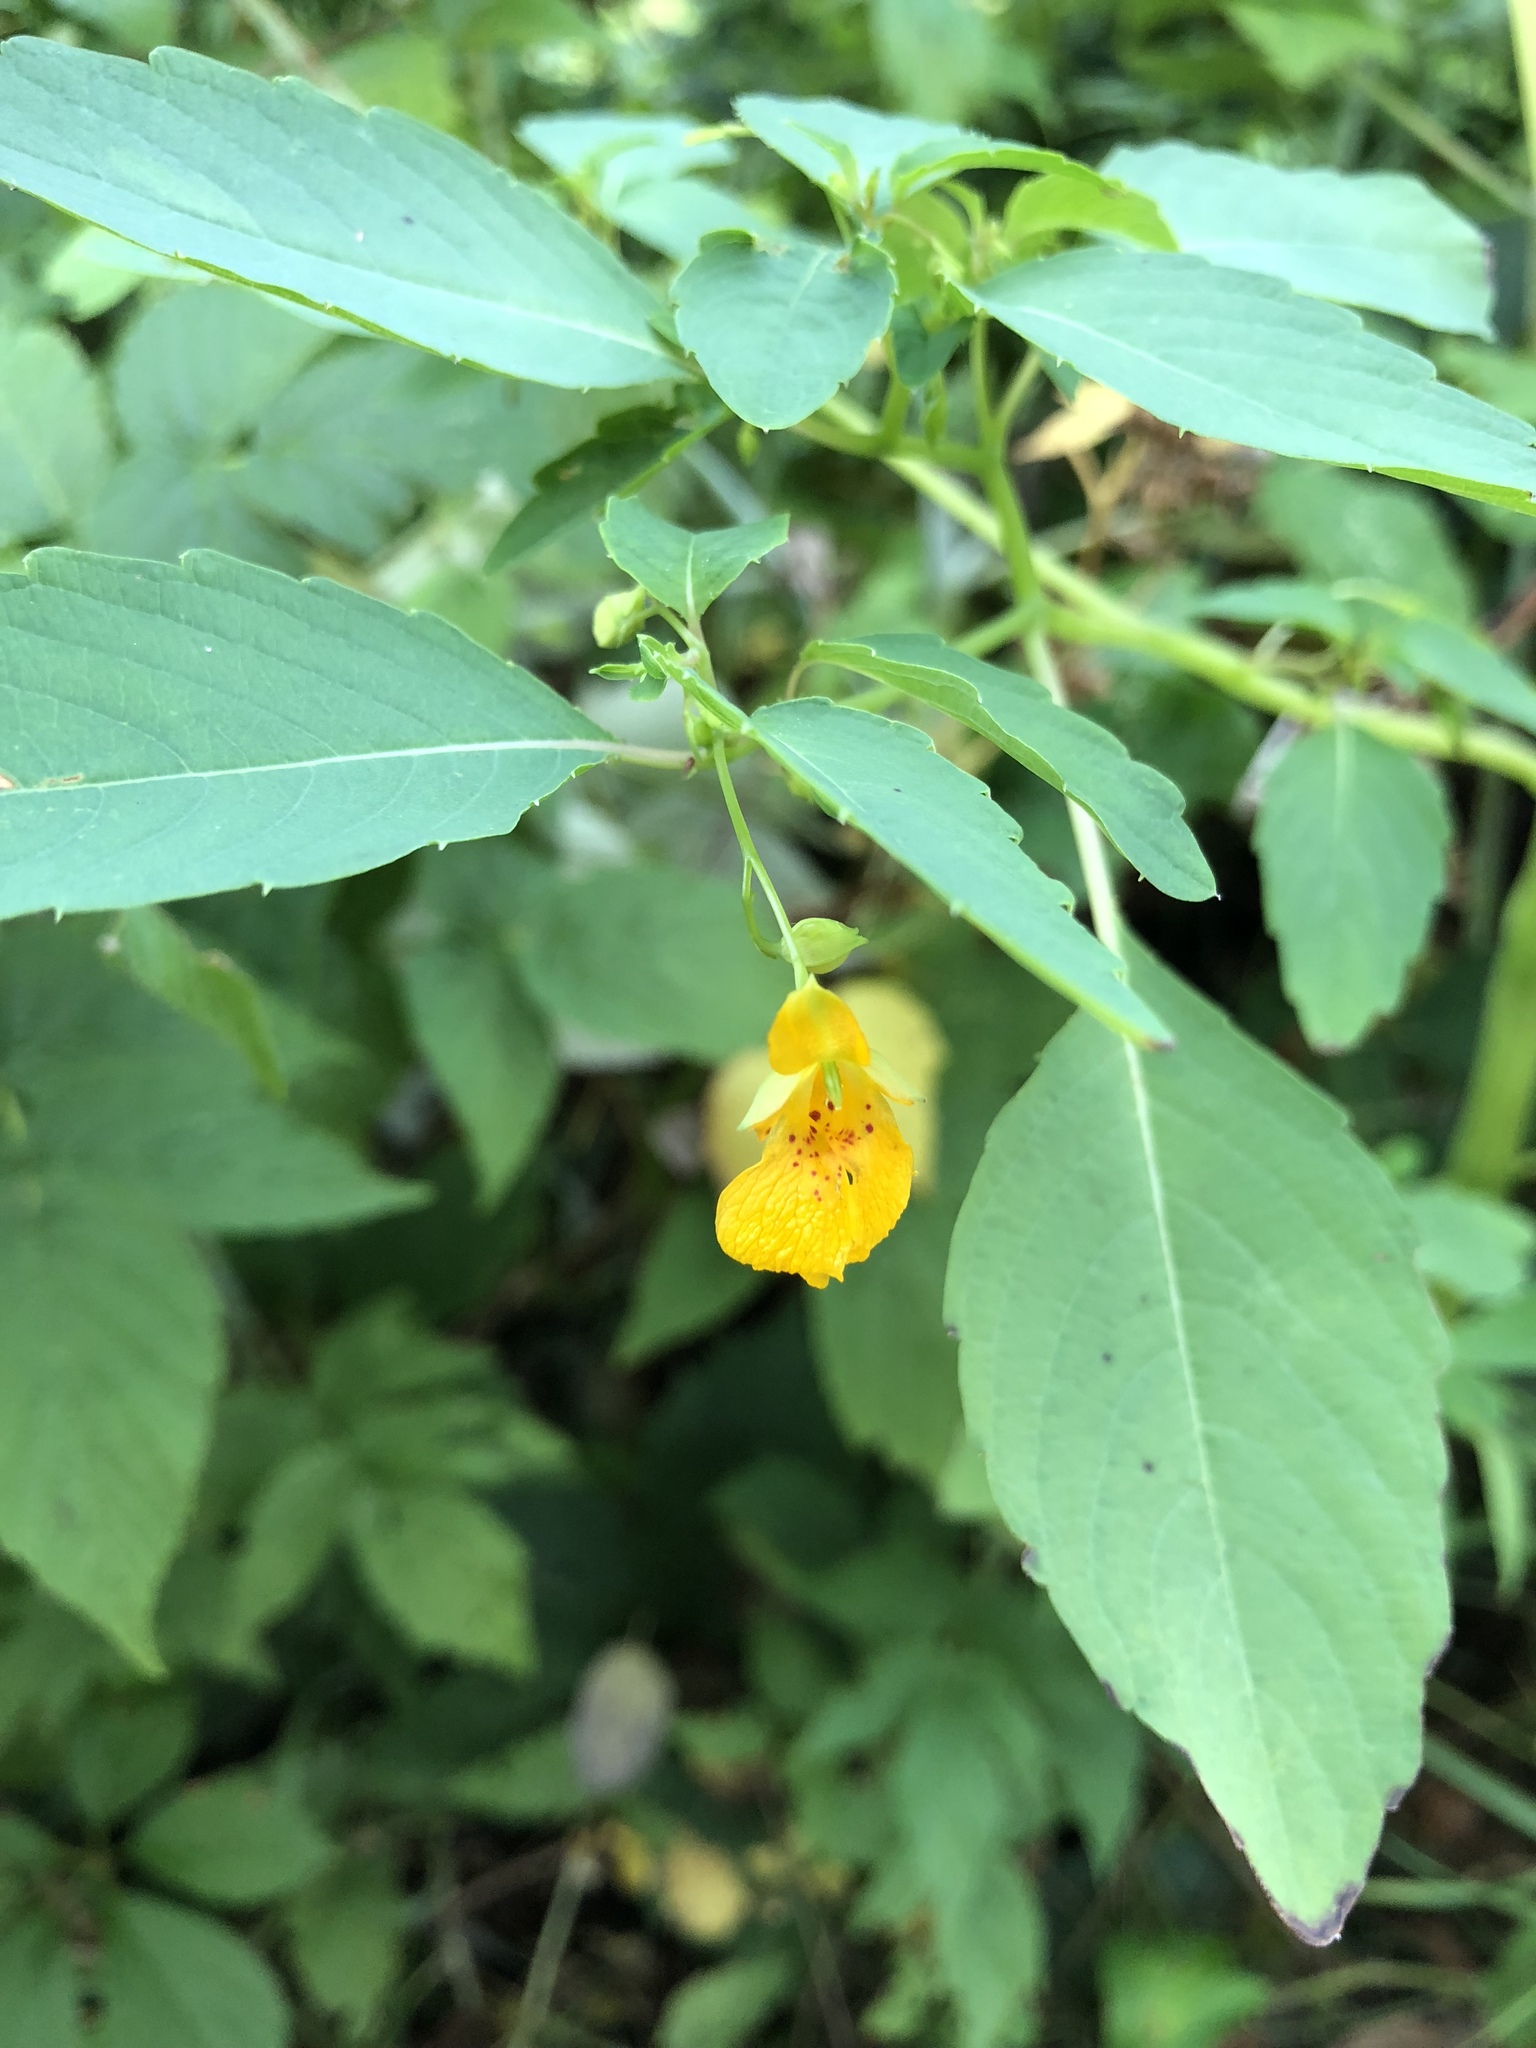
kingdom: Plantae
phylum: Tracheophyta
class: Magnoliopsida
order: Ericales
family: Balsaminaceae
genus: Impatiens
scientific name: Impatiens capensis
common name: Orange balsam
